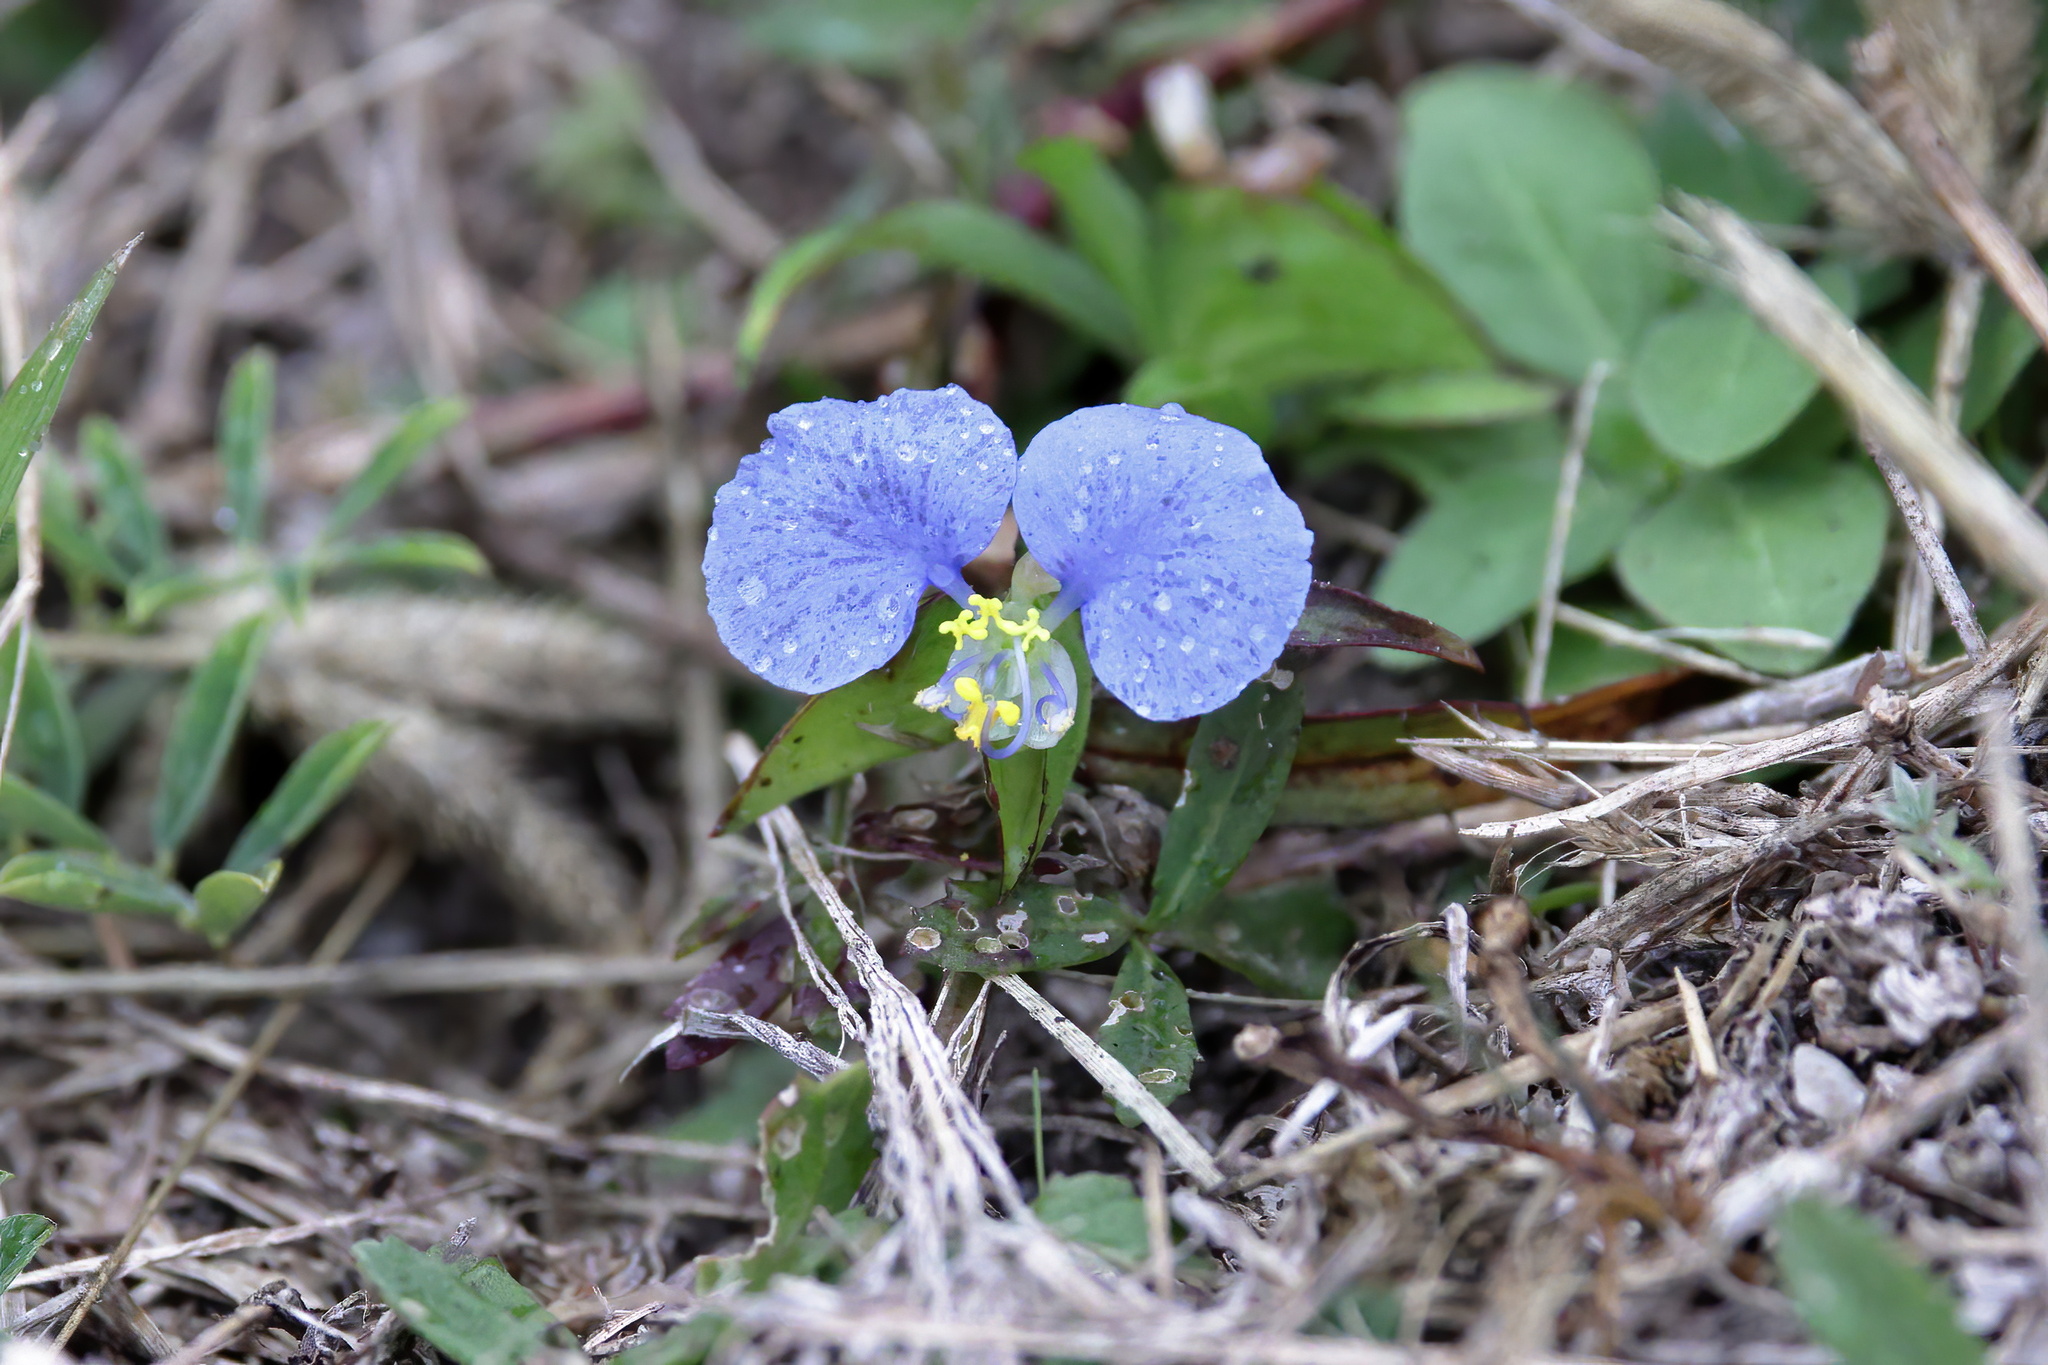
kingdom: Plantae
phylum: Tracheophyta
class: Liliopsida
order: Commelinales
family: Commelinaceae
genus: Commelina
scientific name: Commelina erecta
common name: Blousel blommetjie
